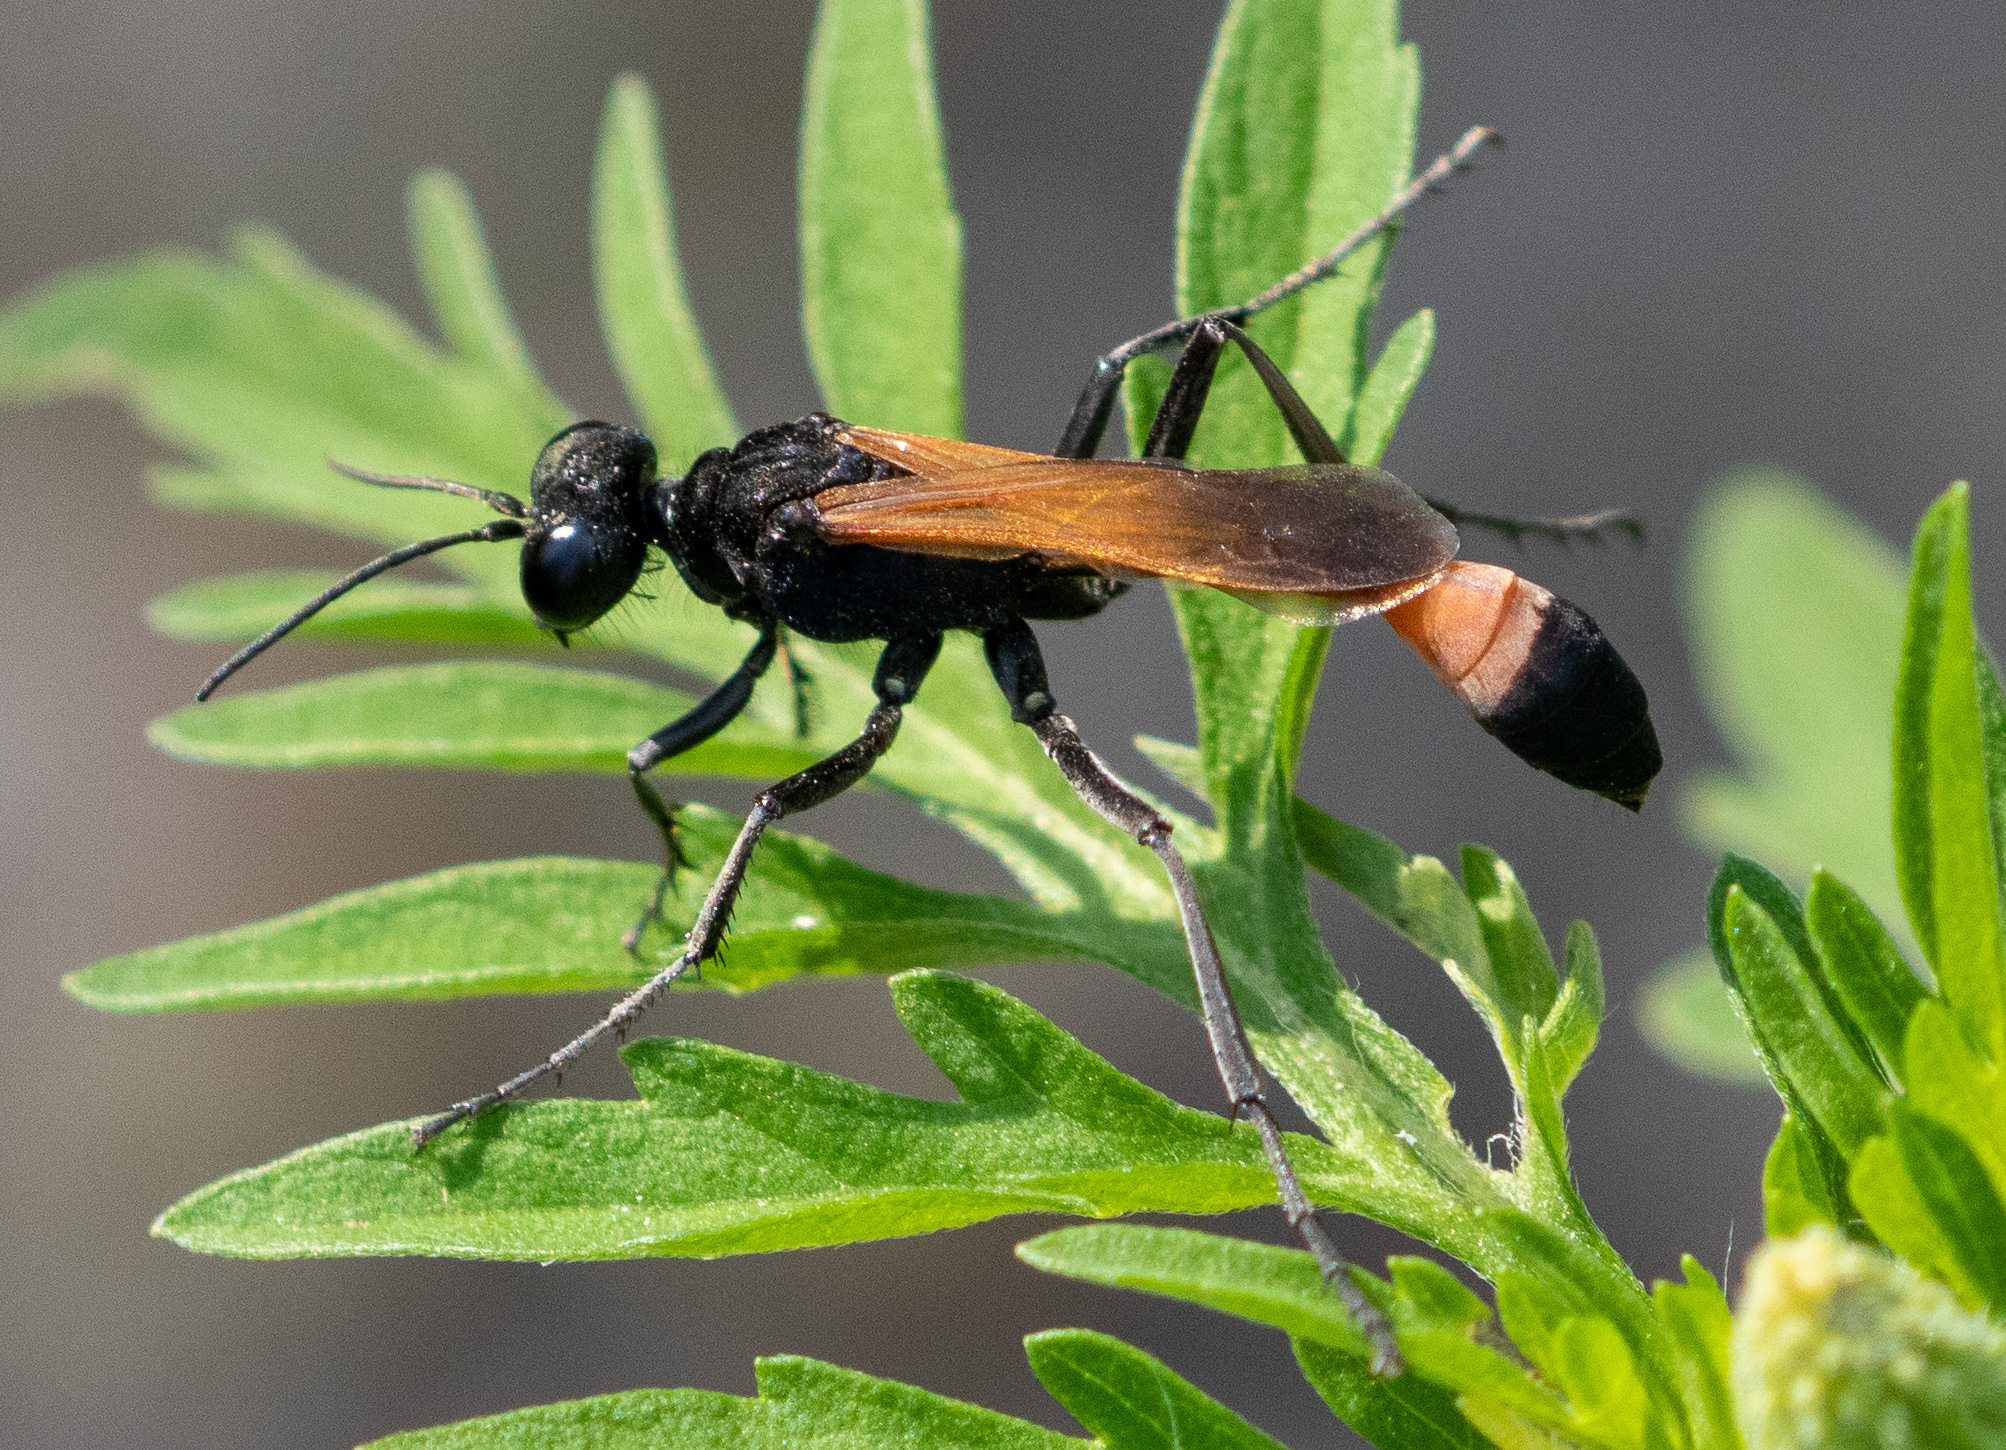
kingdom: Animalia
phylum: Arthropoda
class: Insecta
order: Hymenoptera
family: Sphecidae
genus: Ammophila
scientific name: Ammophila pictipennis
